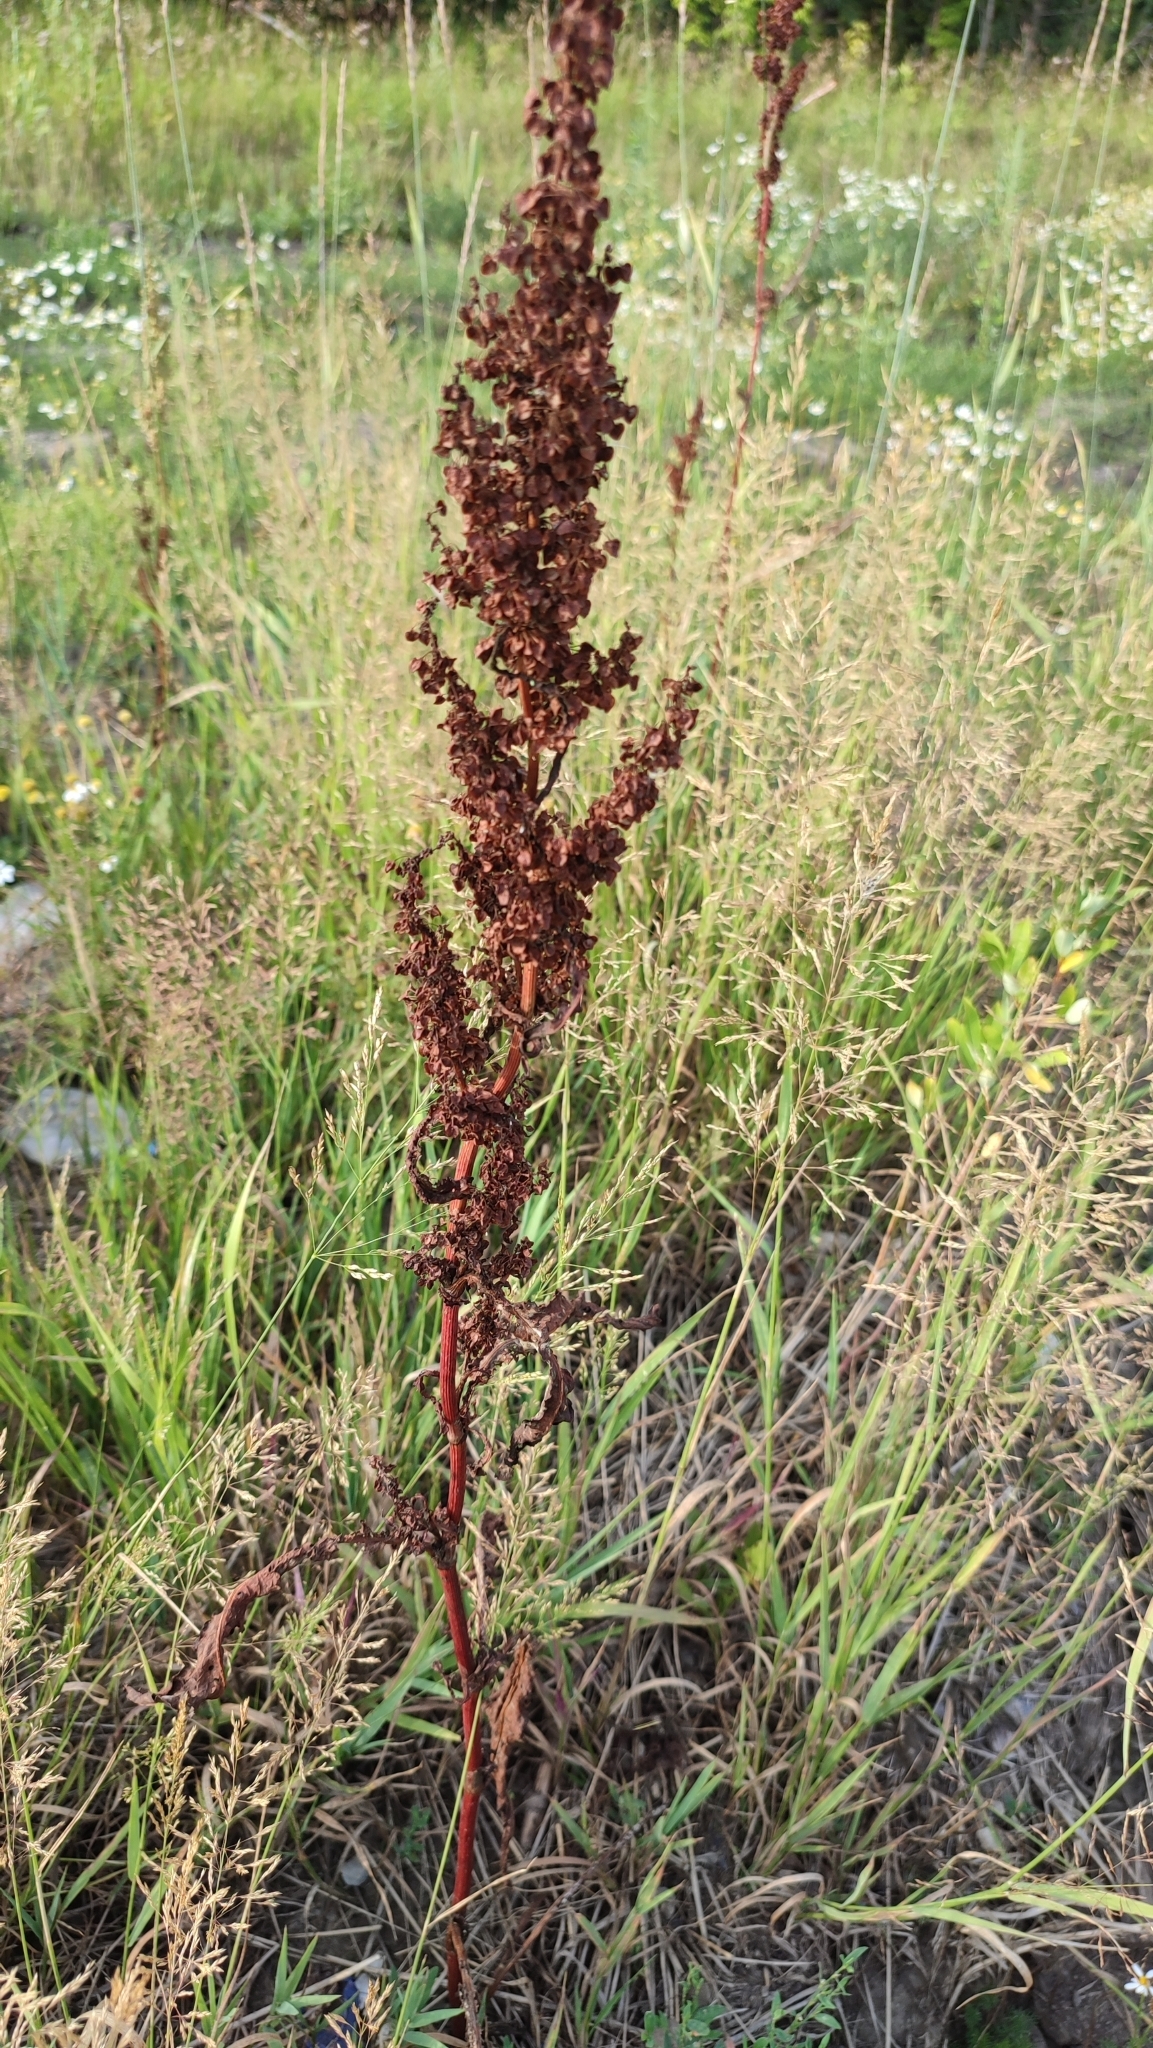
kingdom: Plantae
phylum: Tracheophyta
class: Magnoliopsida
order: Caryophyllales
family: Polygonaceae
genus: Rumex
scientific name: Rumex pseudonatronatus
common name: Field dock
